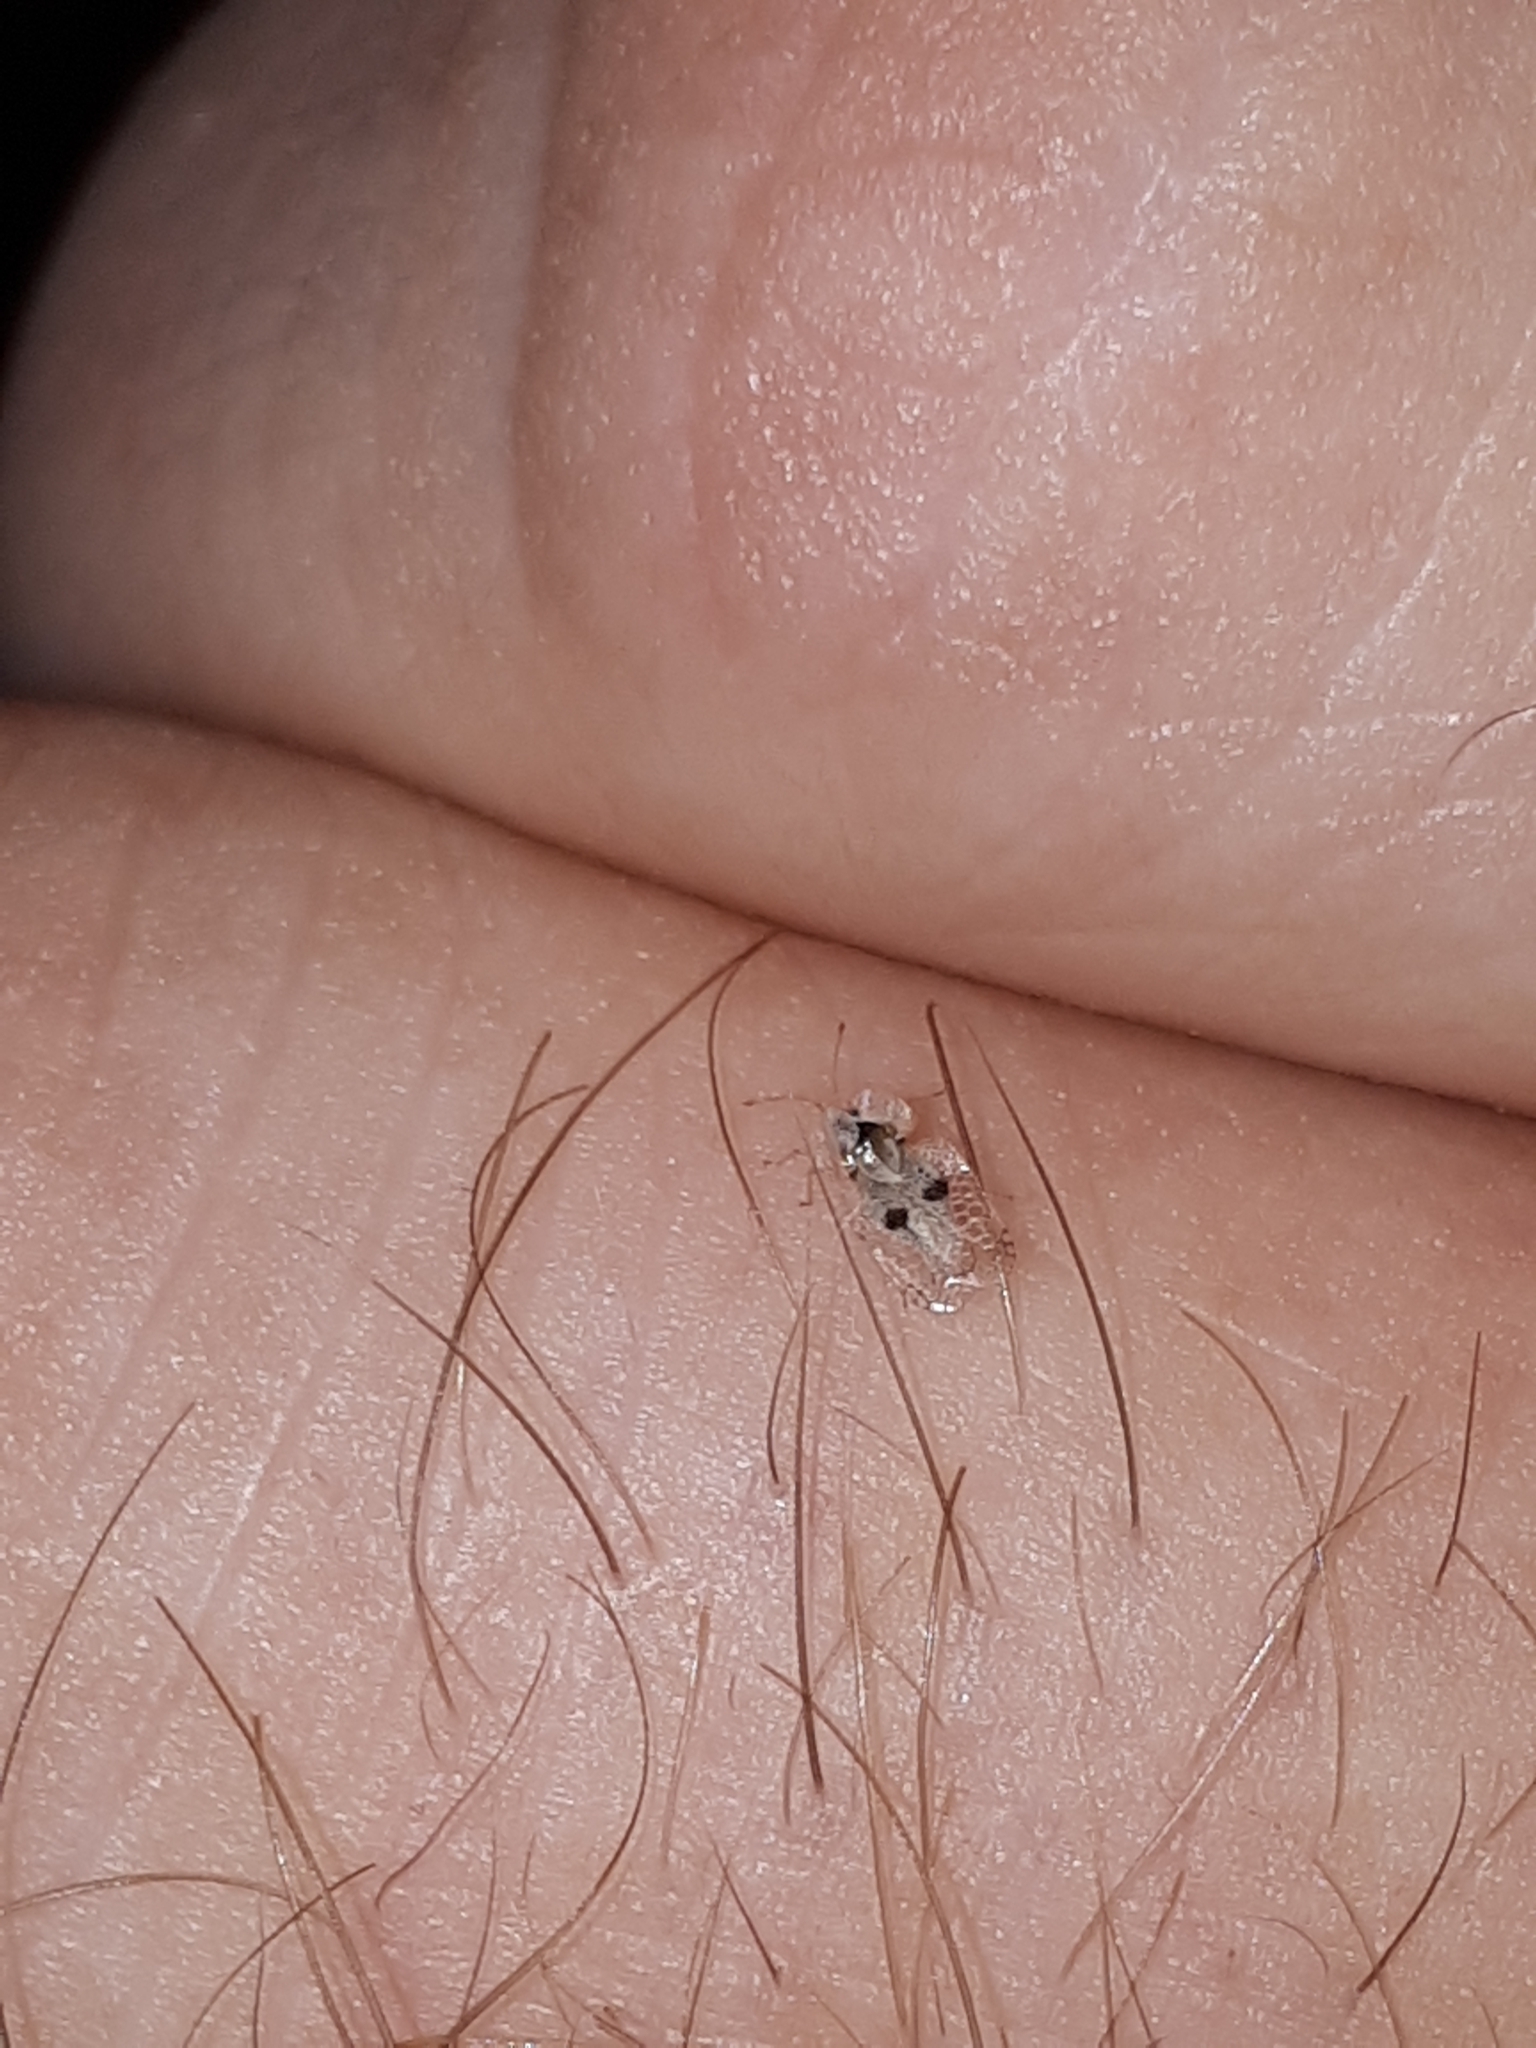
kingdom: Animalia
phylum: Arthropoda
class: Insecta
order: Hemiptera
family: Tingidae
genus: Corythucha
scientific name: Corythucha ciliata
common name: Sycamore lace bug
